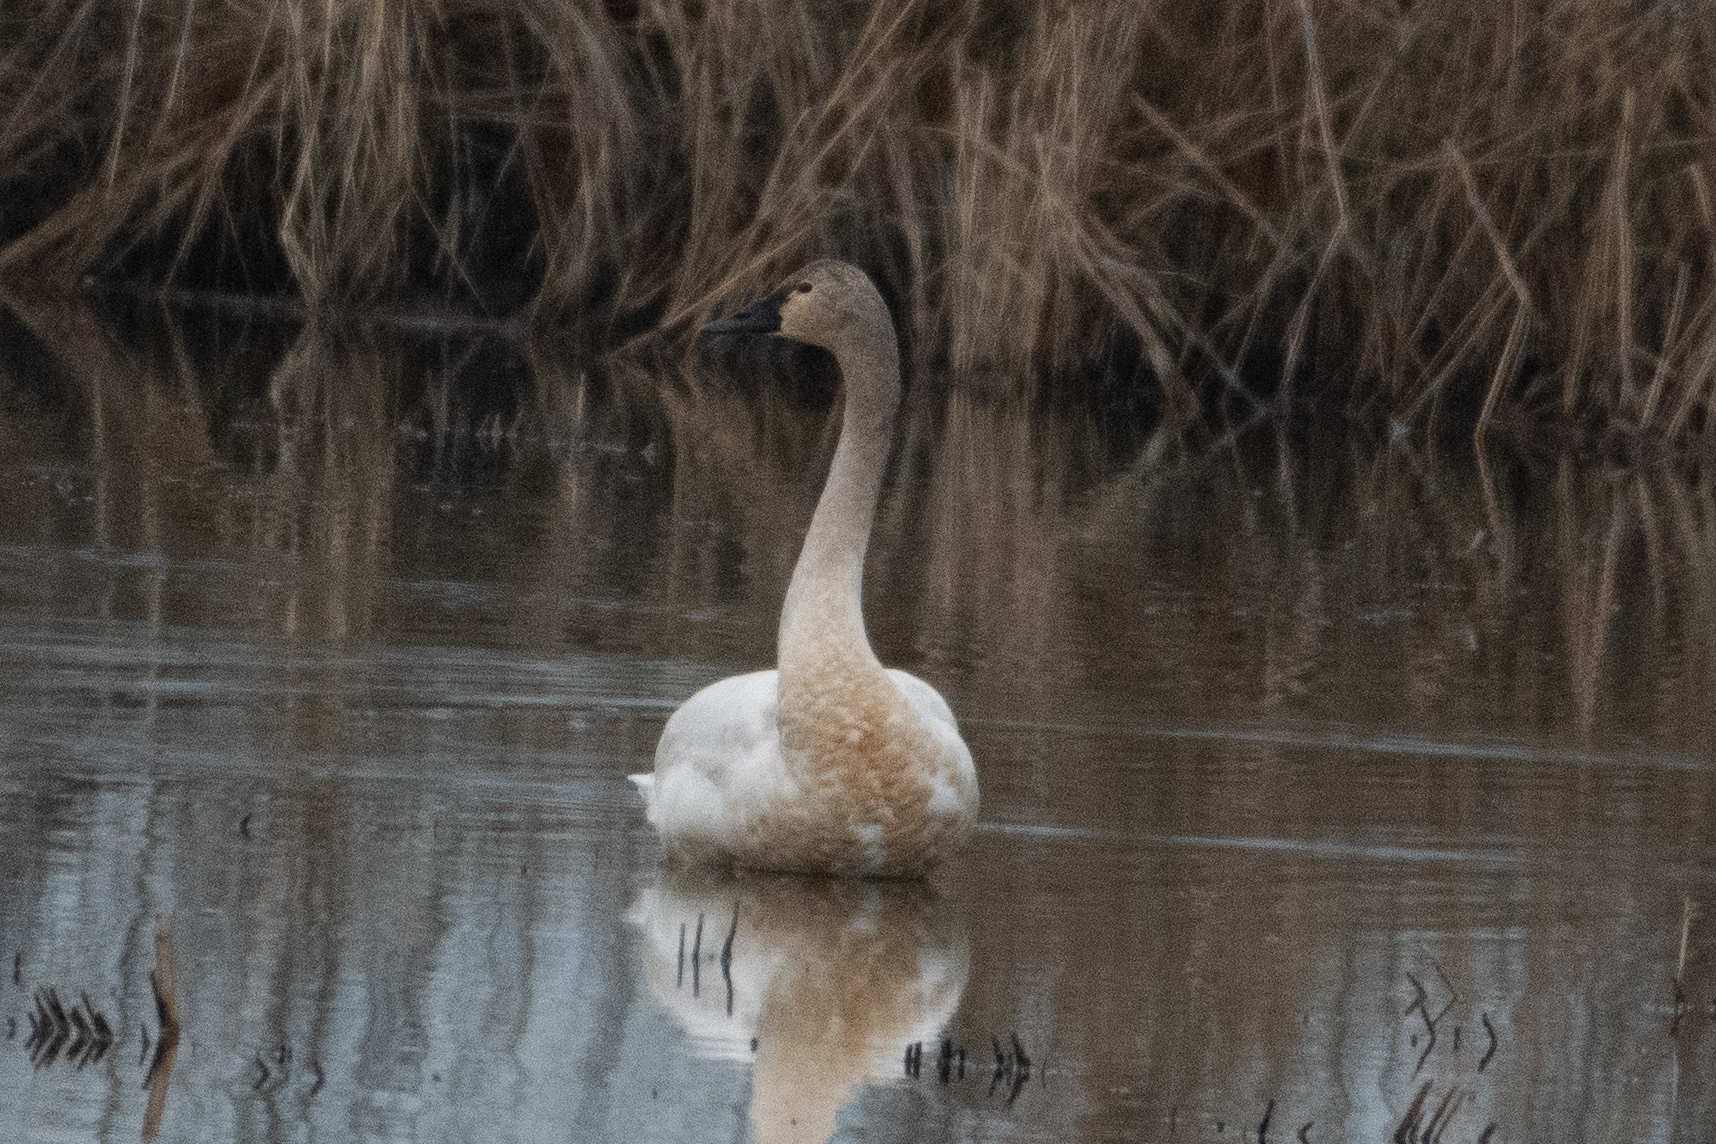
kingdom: Animalia
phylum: Chordata
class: Aves
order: Anseriformes
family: Anatidae
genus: Cygnus
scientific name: Cygnus columbianus
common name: Tundra swan
